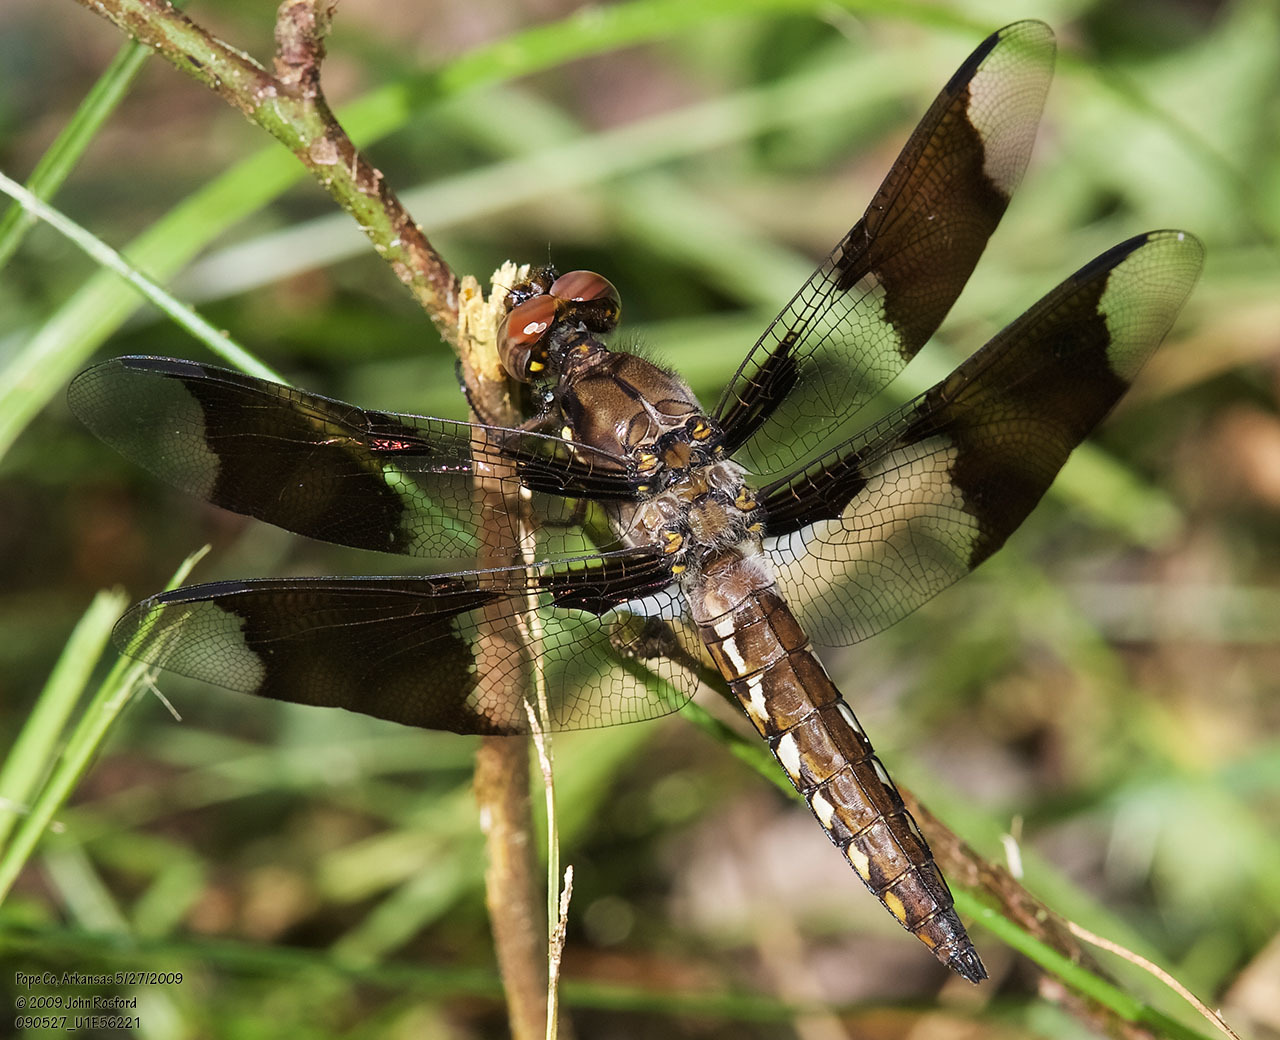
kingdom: Animalia
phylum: Arthropoda
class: Insecta
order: Odonata
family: Libellulidae
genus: Plathemis
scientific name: Plathemis lydia
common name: Common whitetail
